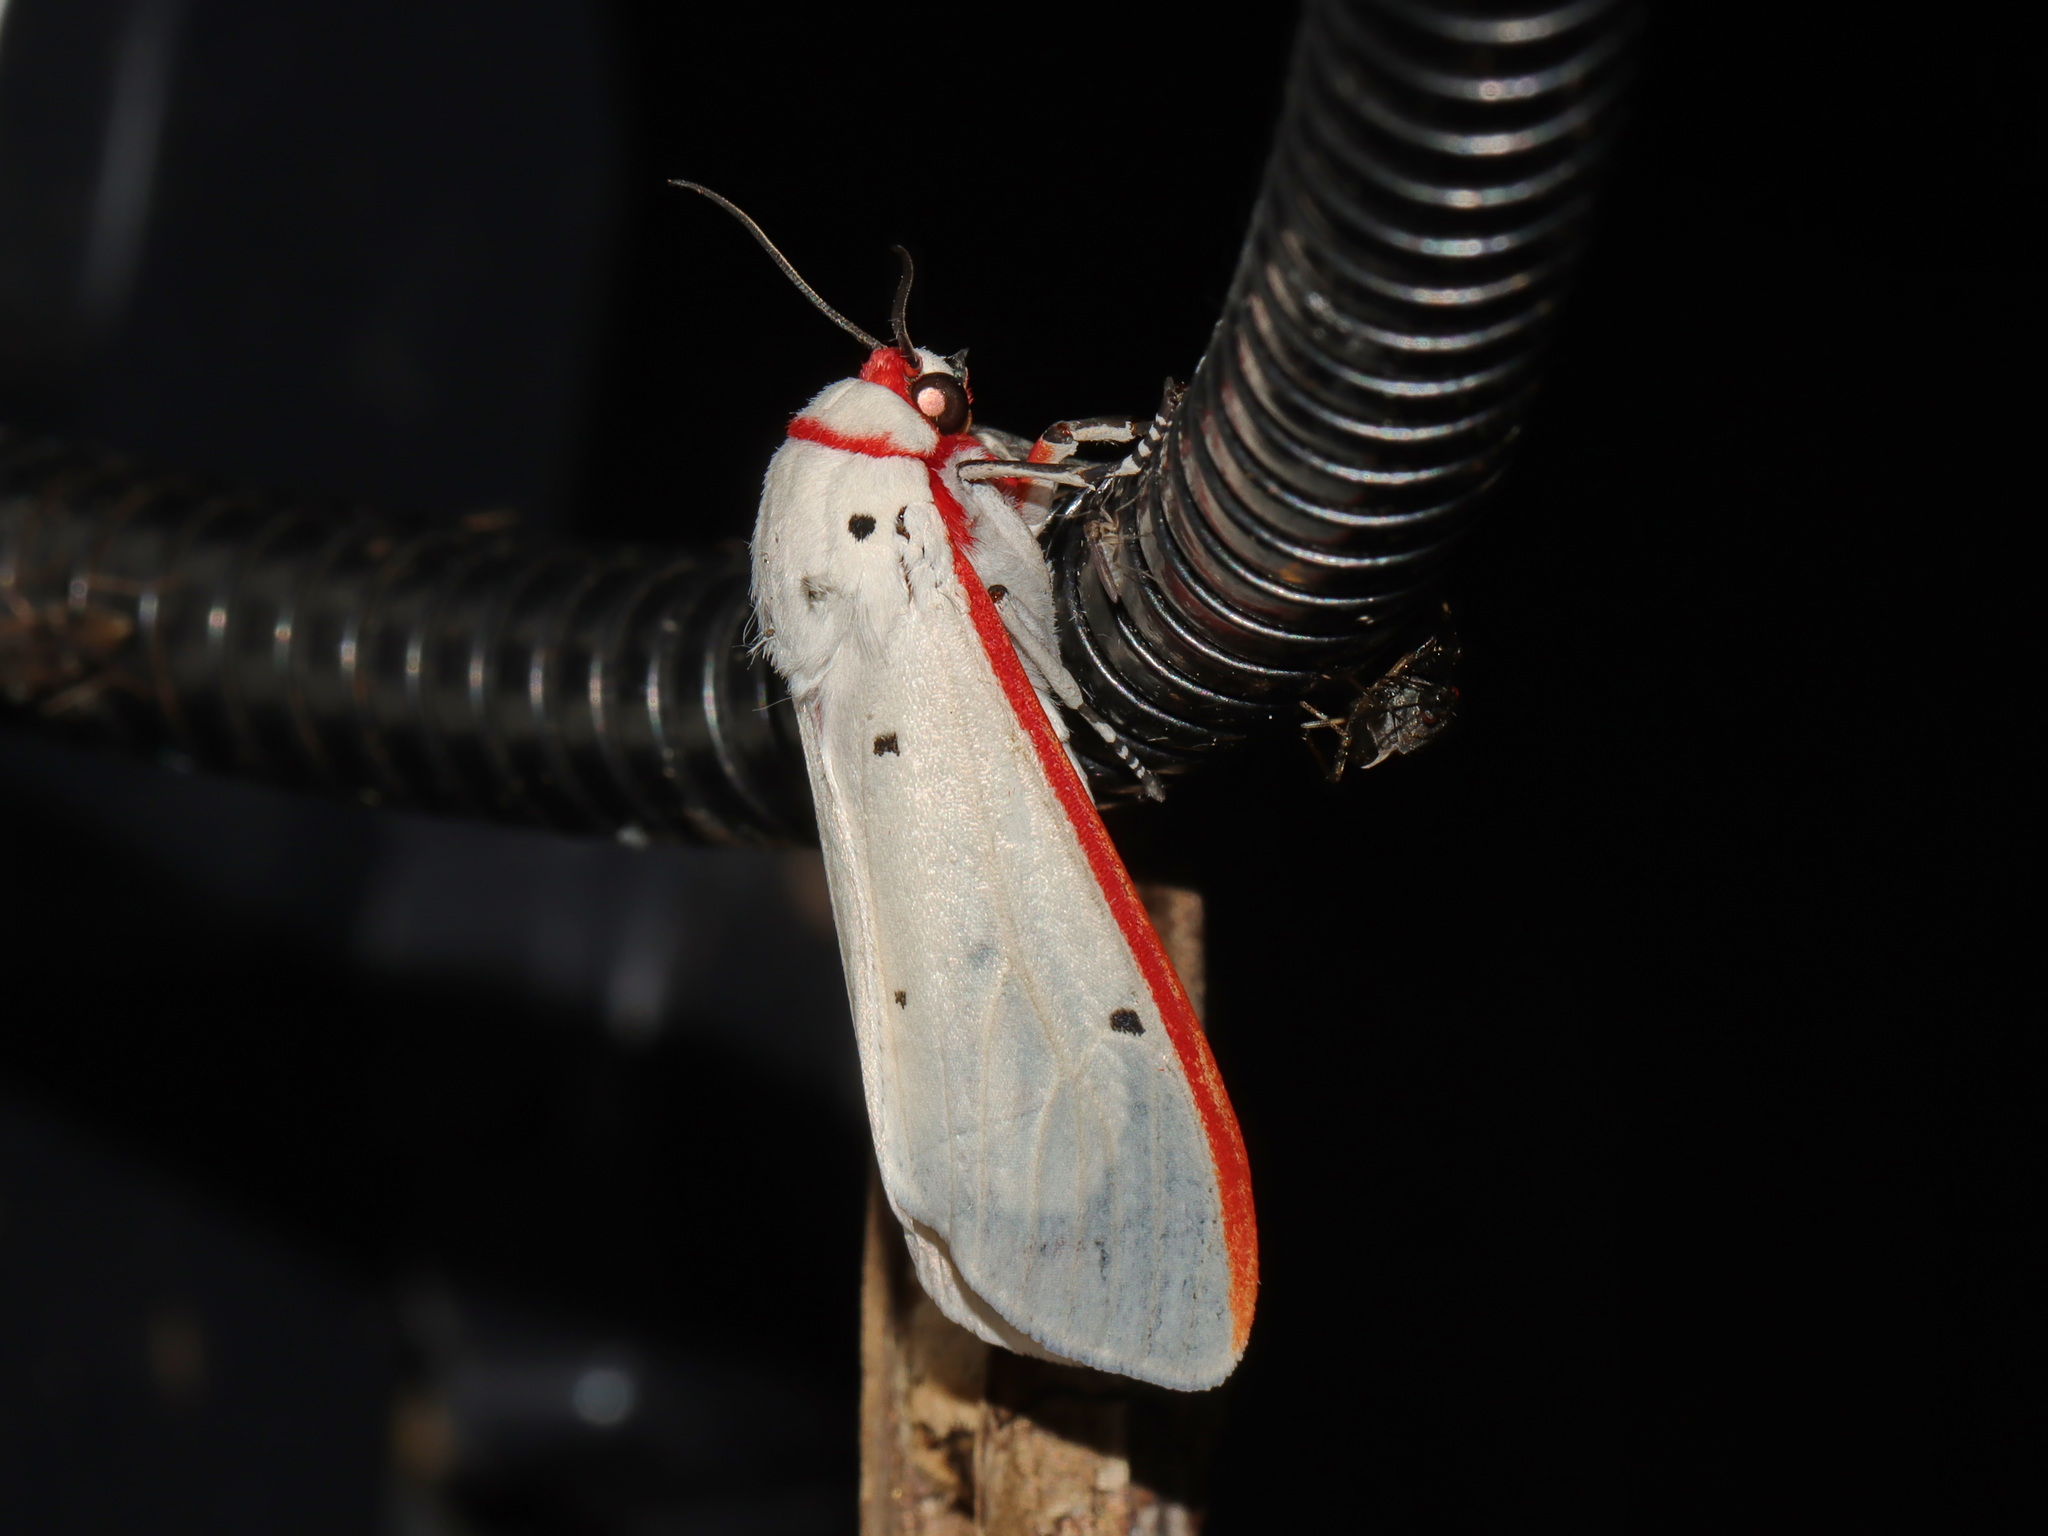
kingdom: Animalia
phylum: Arthropoda
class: Insecta
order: Lepidoptera
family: Erebidae
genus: Aloa
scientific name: Aloa lactinea
